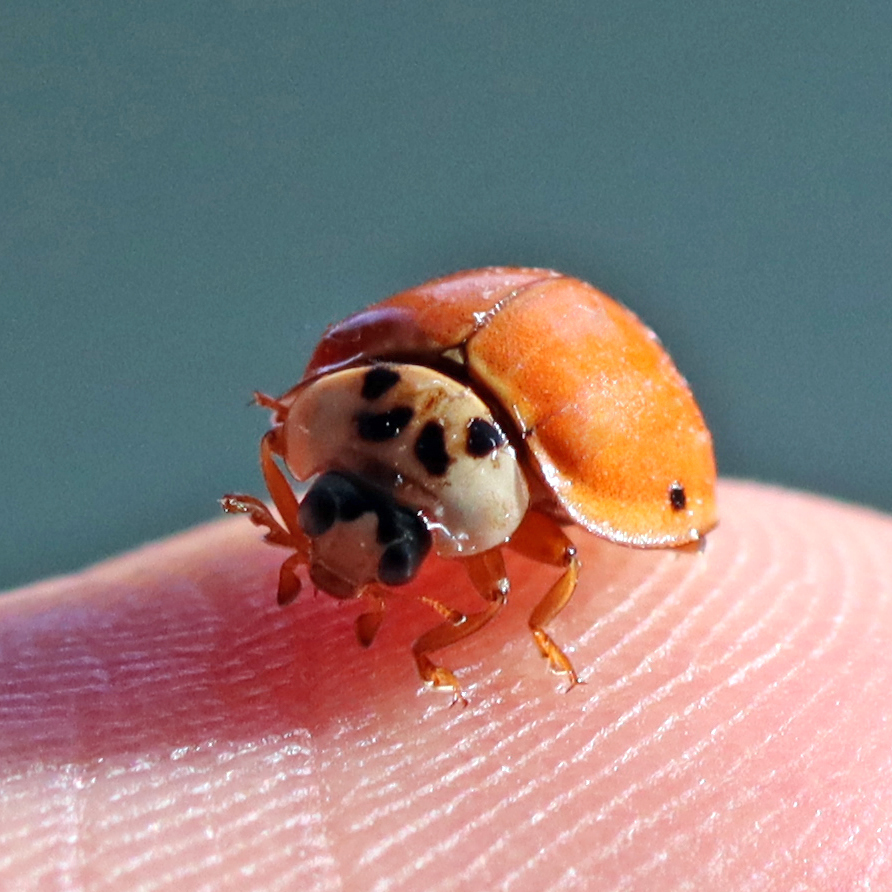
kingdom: Animalia
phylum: Arthropoda
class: Insecta
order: Coleoptera
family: Coccinellidae
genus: Harmonia
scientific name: Harmonia axyridis
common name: Harlequin ladybird
